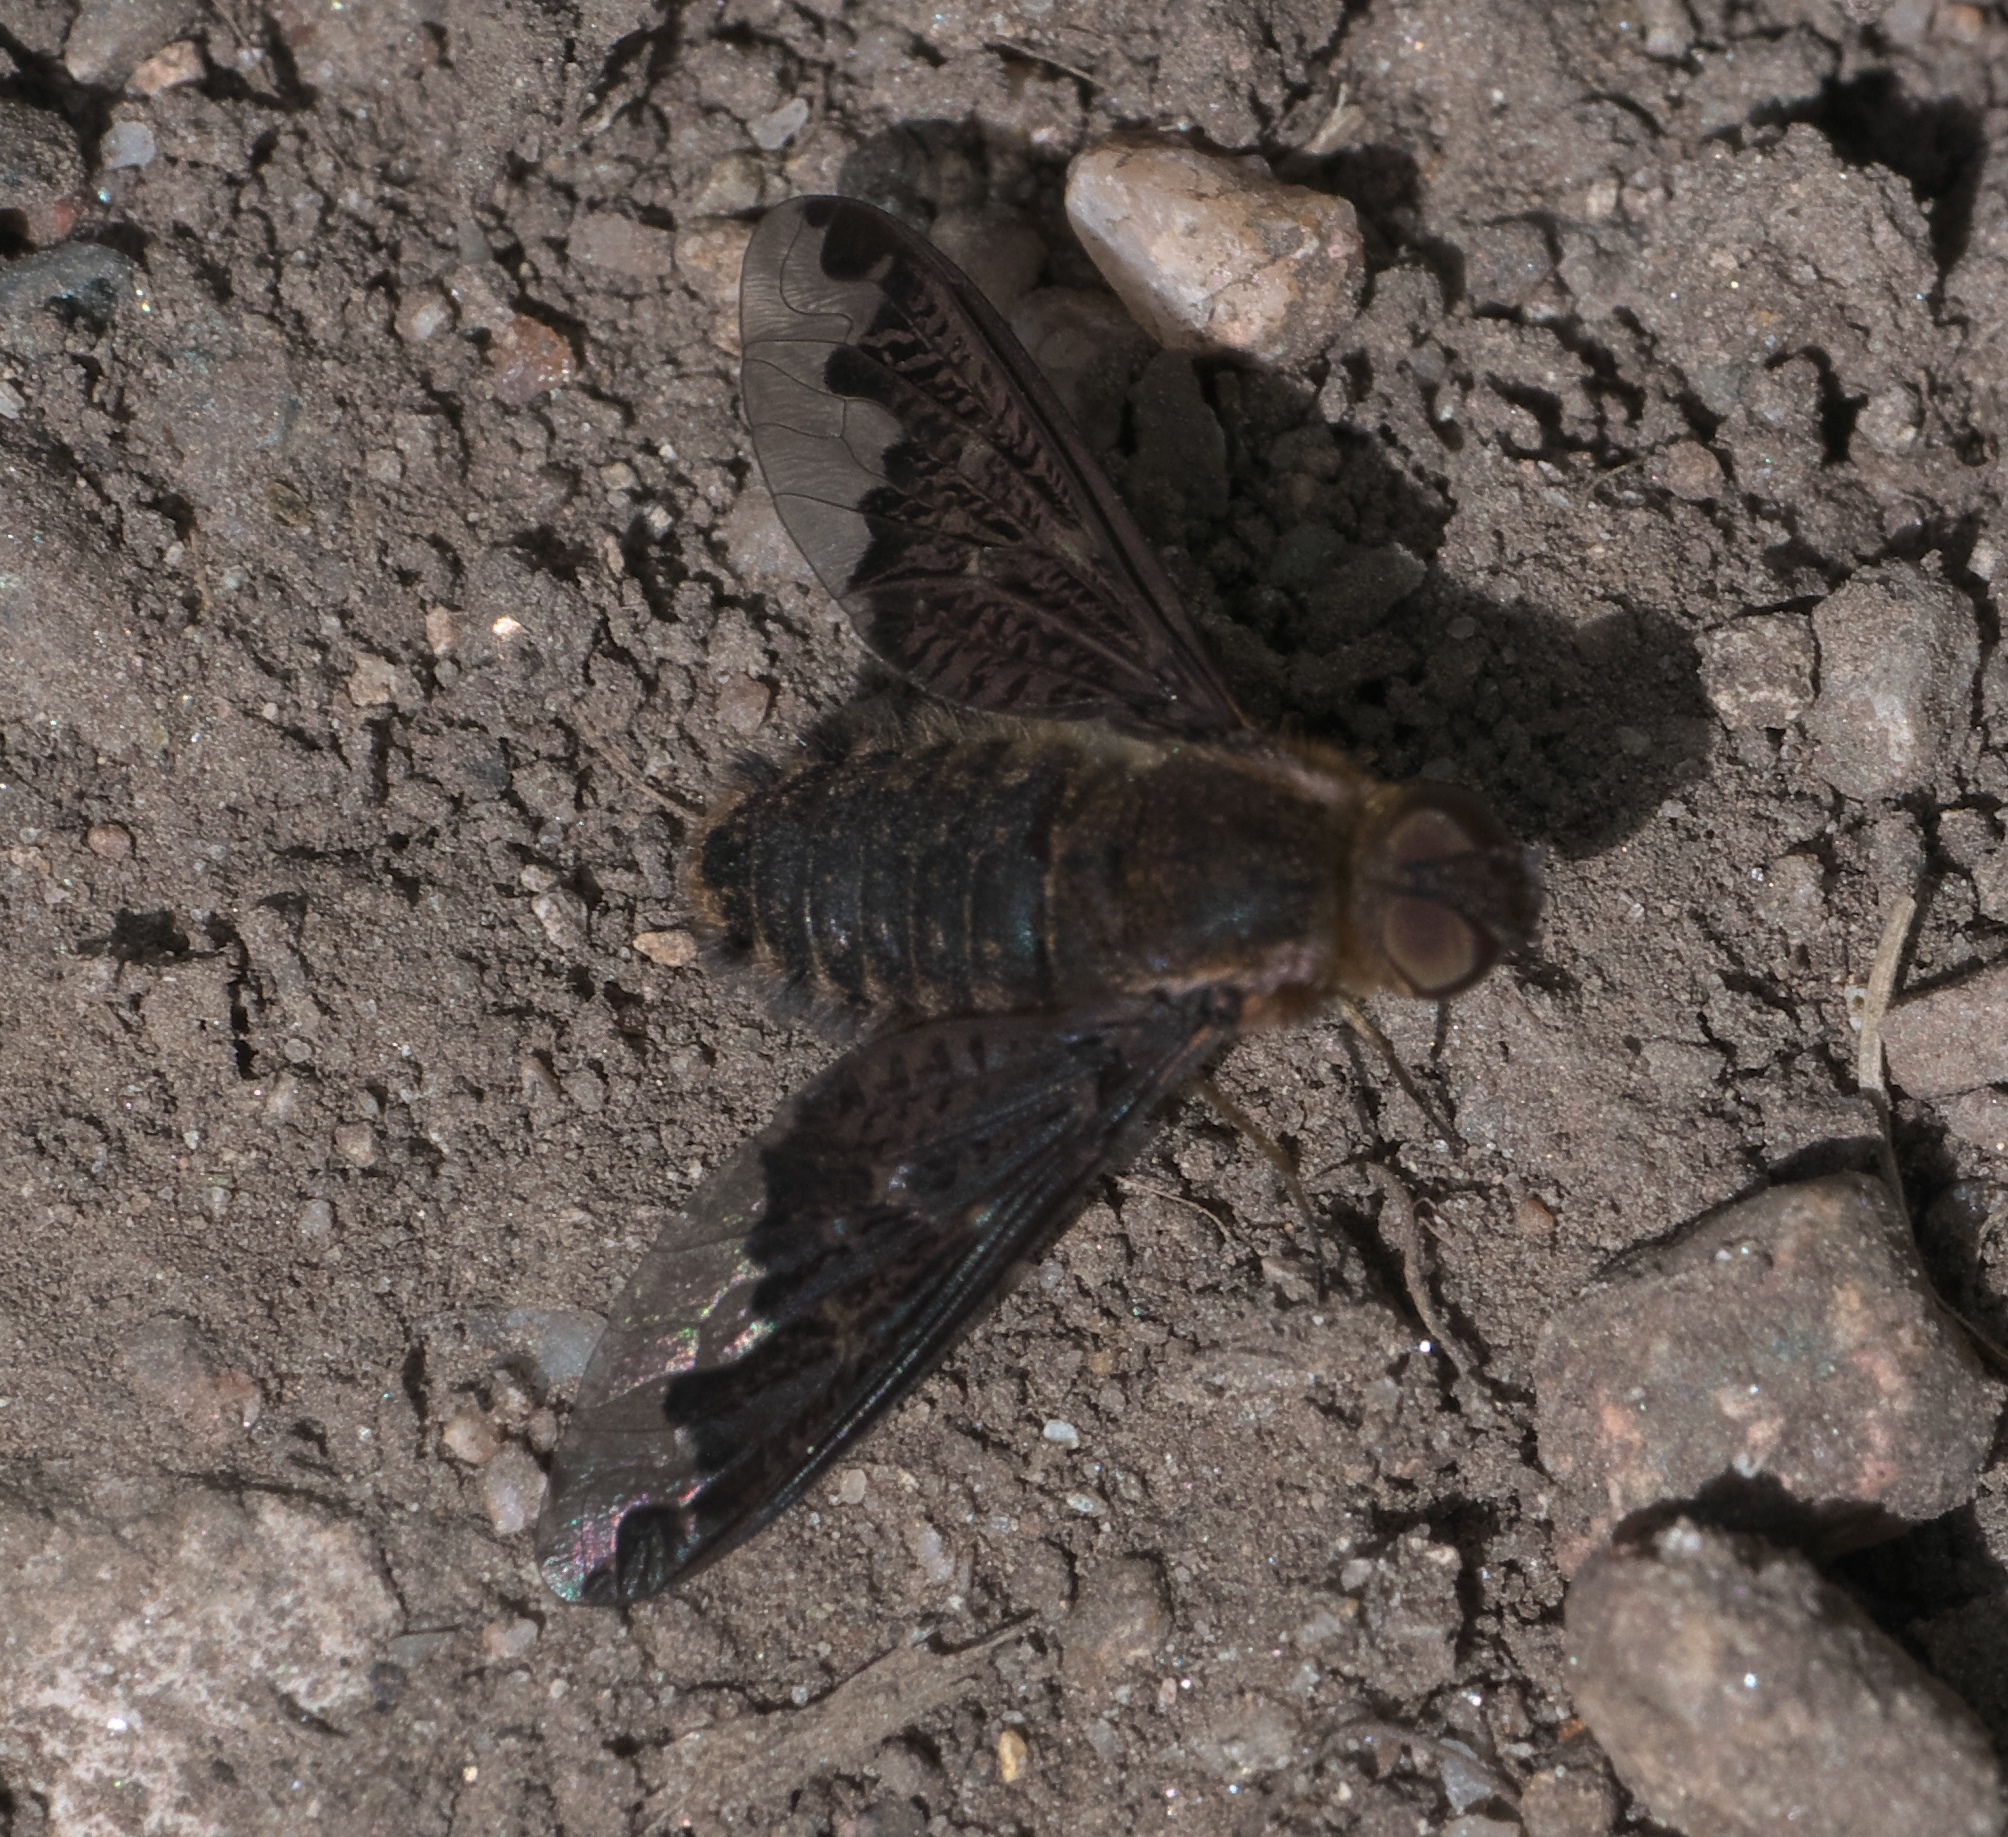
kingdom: Animalia
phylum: Arthropoda
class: Insecta
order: Diptera
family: Bombyliidae
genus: Hemipenthes
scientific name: Hemipenthes sinuosus
